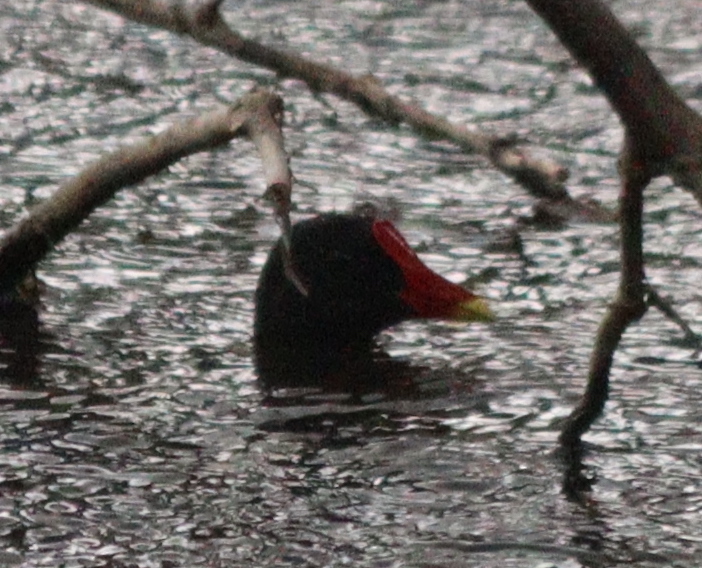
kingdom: Animalia
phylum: Chordata
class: Aves
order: Gruiformes
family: Rallidae
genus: Gallinula
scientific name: Gallinula chloropus
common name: Common moorhen
